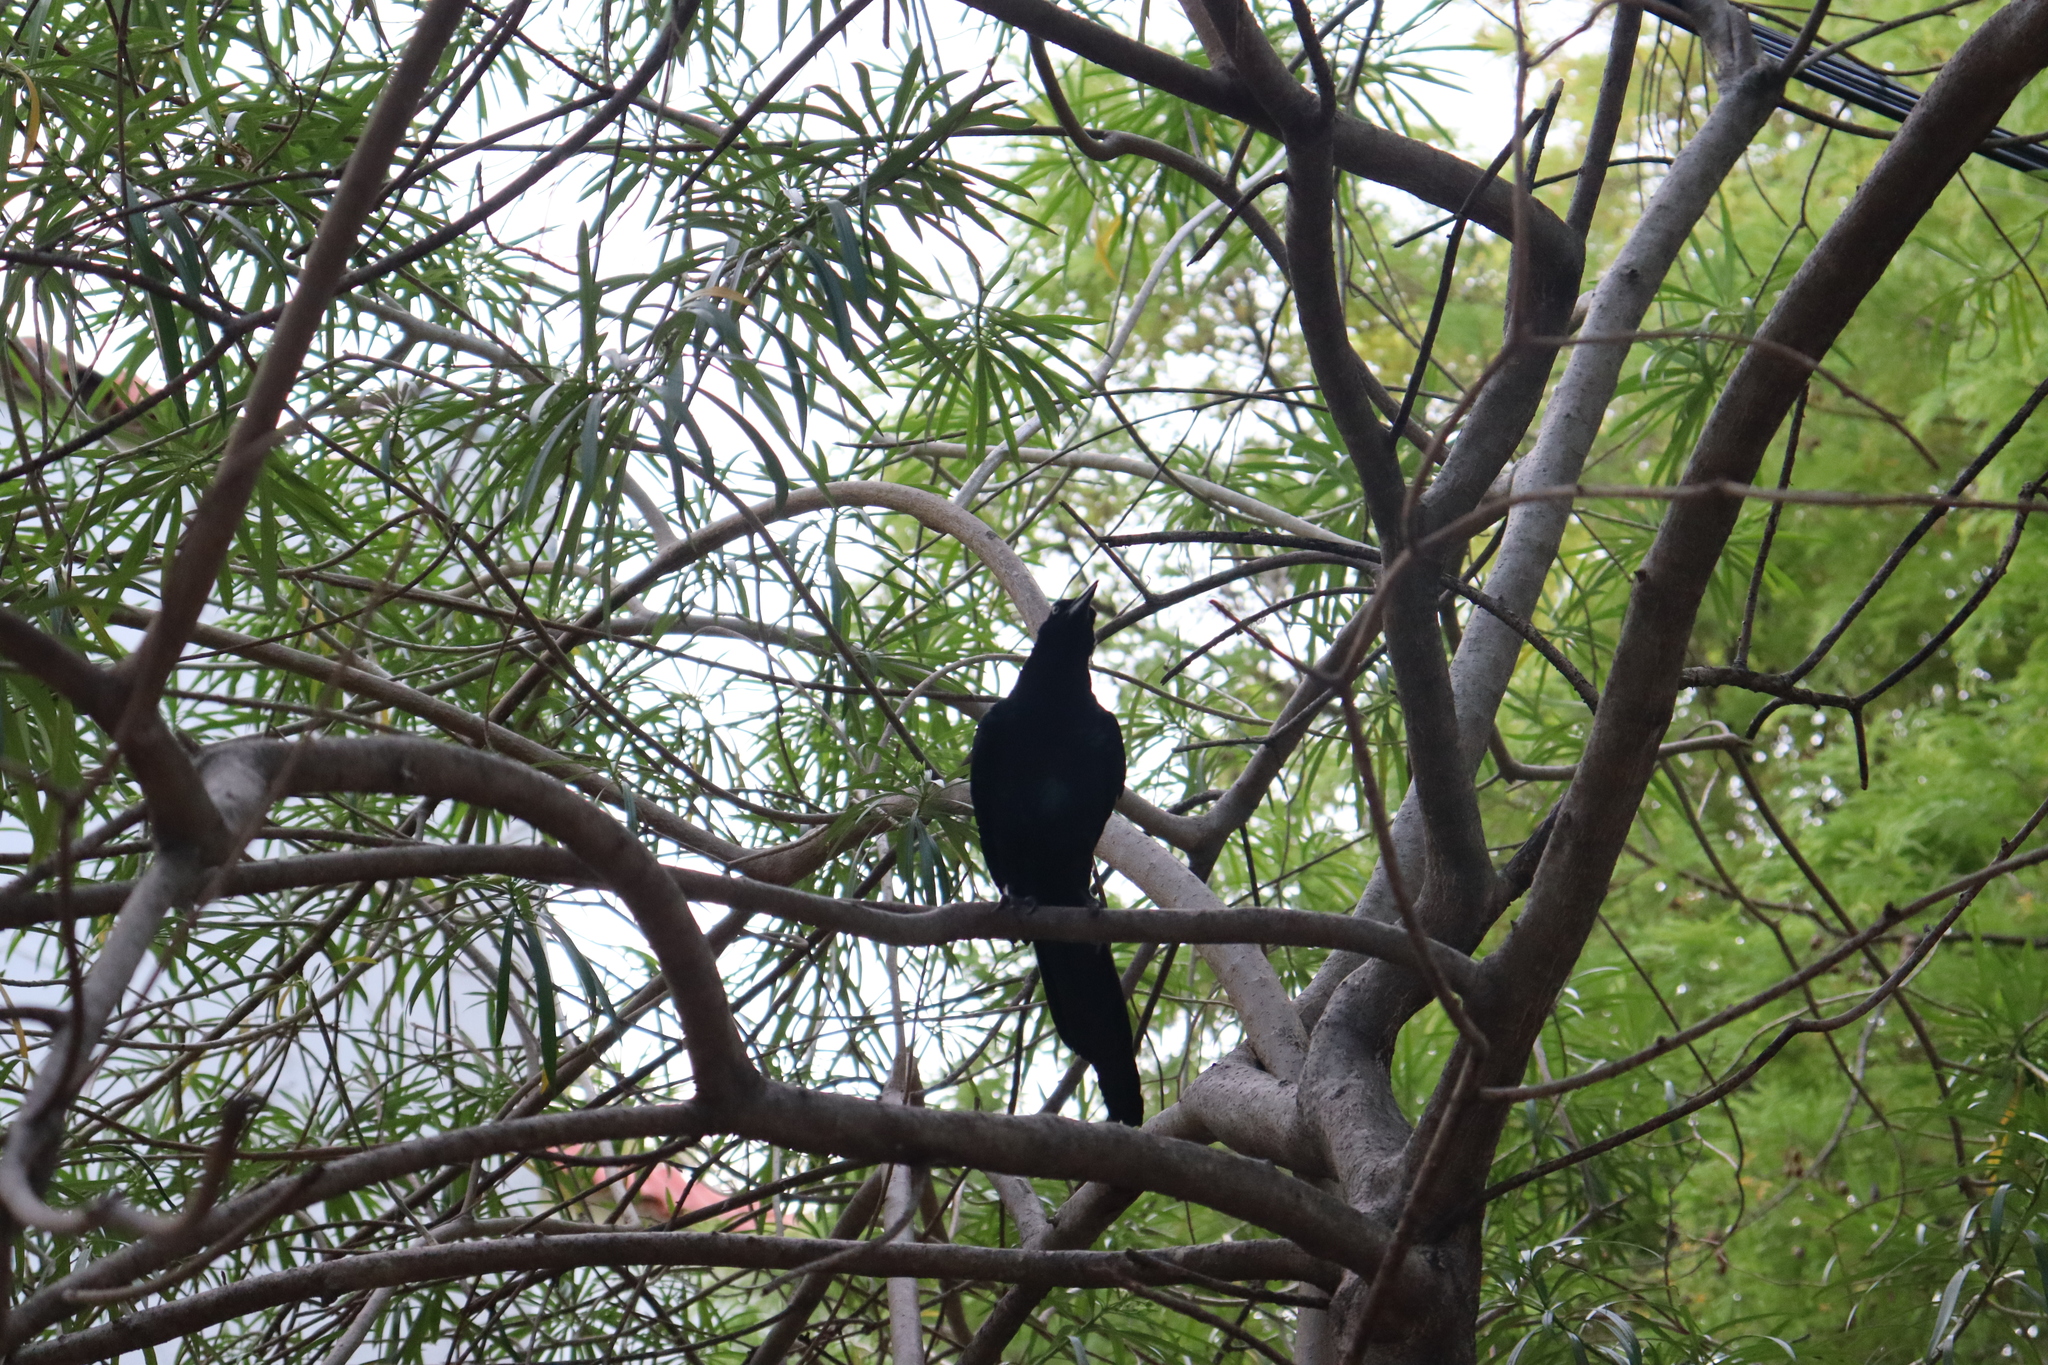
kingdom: Animalia
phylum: Chordata
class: Aves
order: Passeriformes
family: Icteridae
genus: Quiscalus
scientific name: Quiscalus mexicanus
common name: Great-tailed grackle
